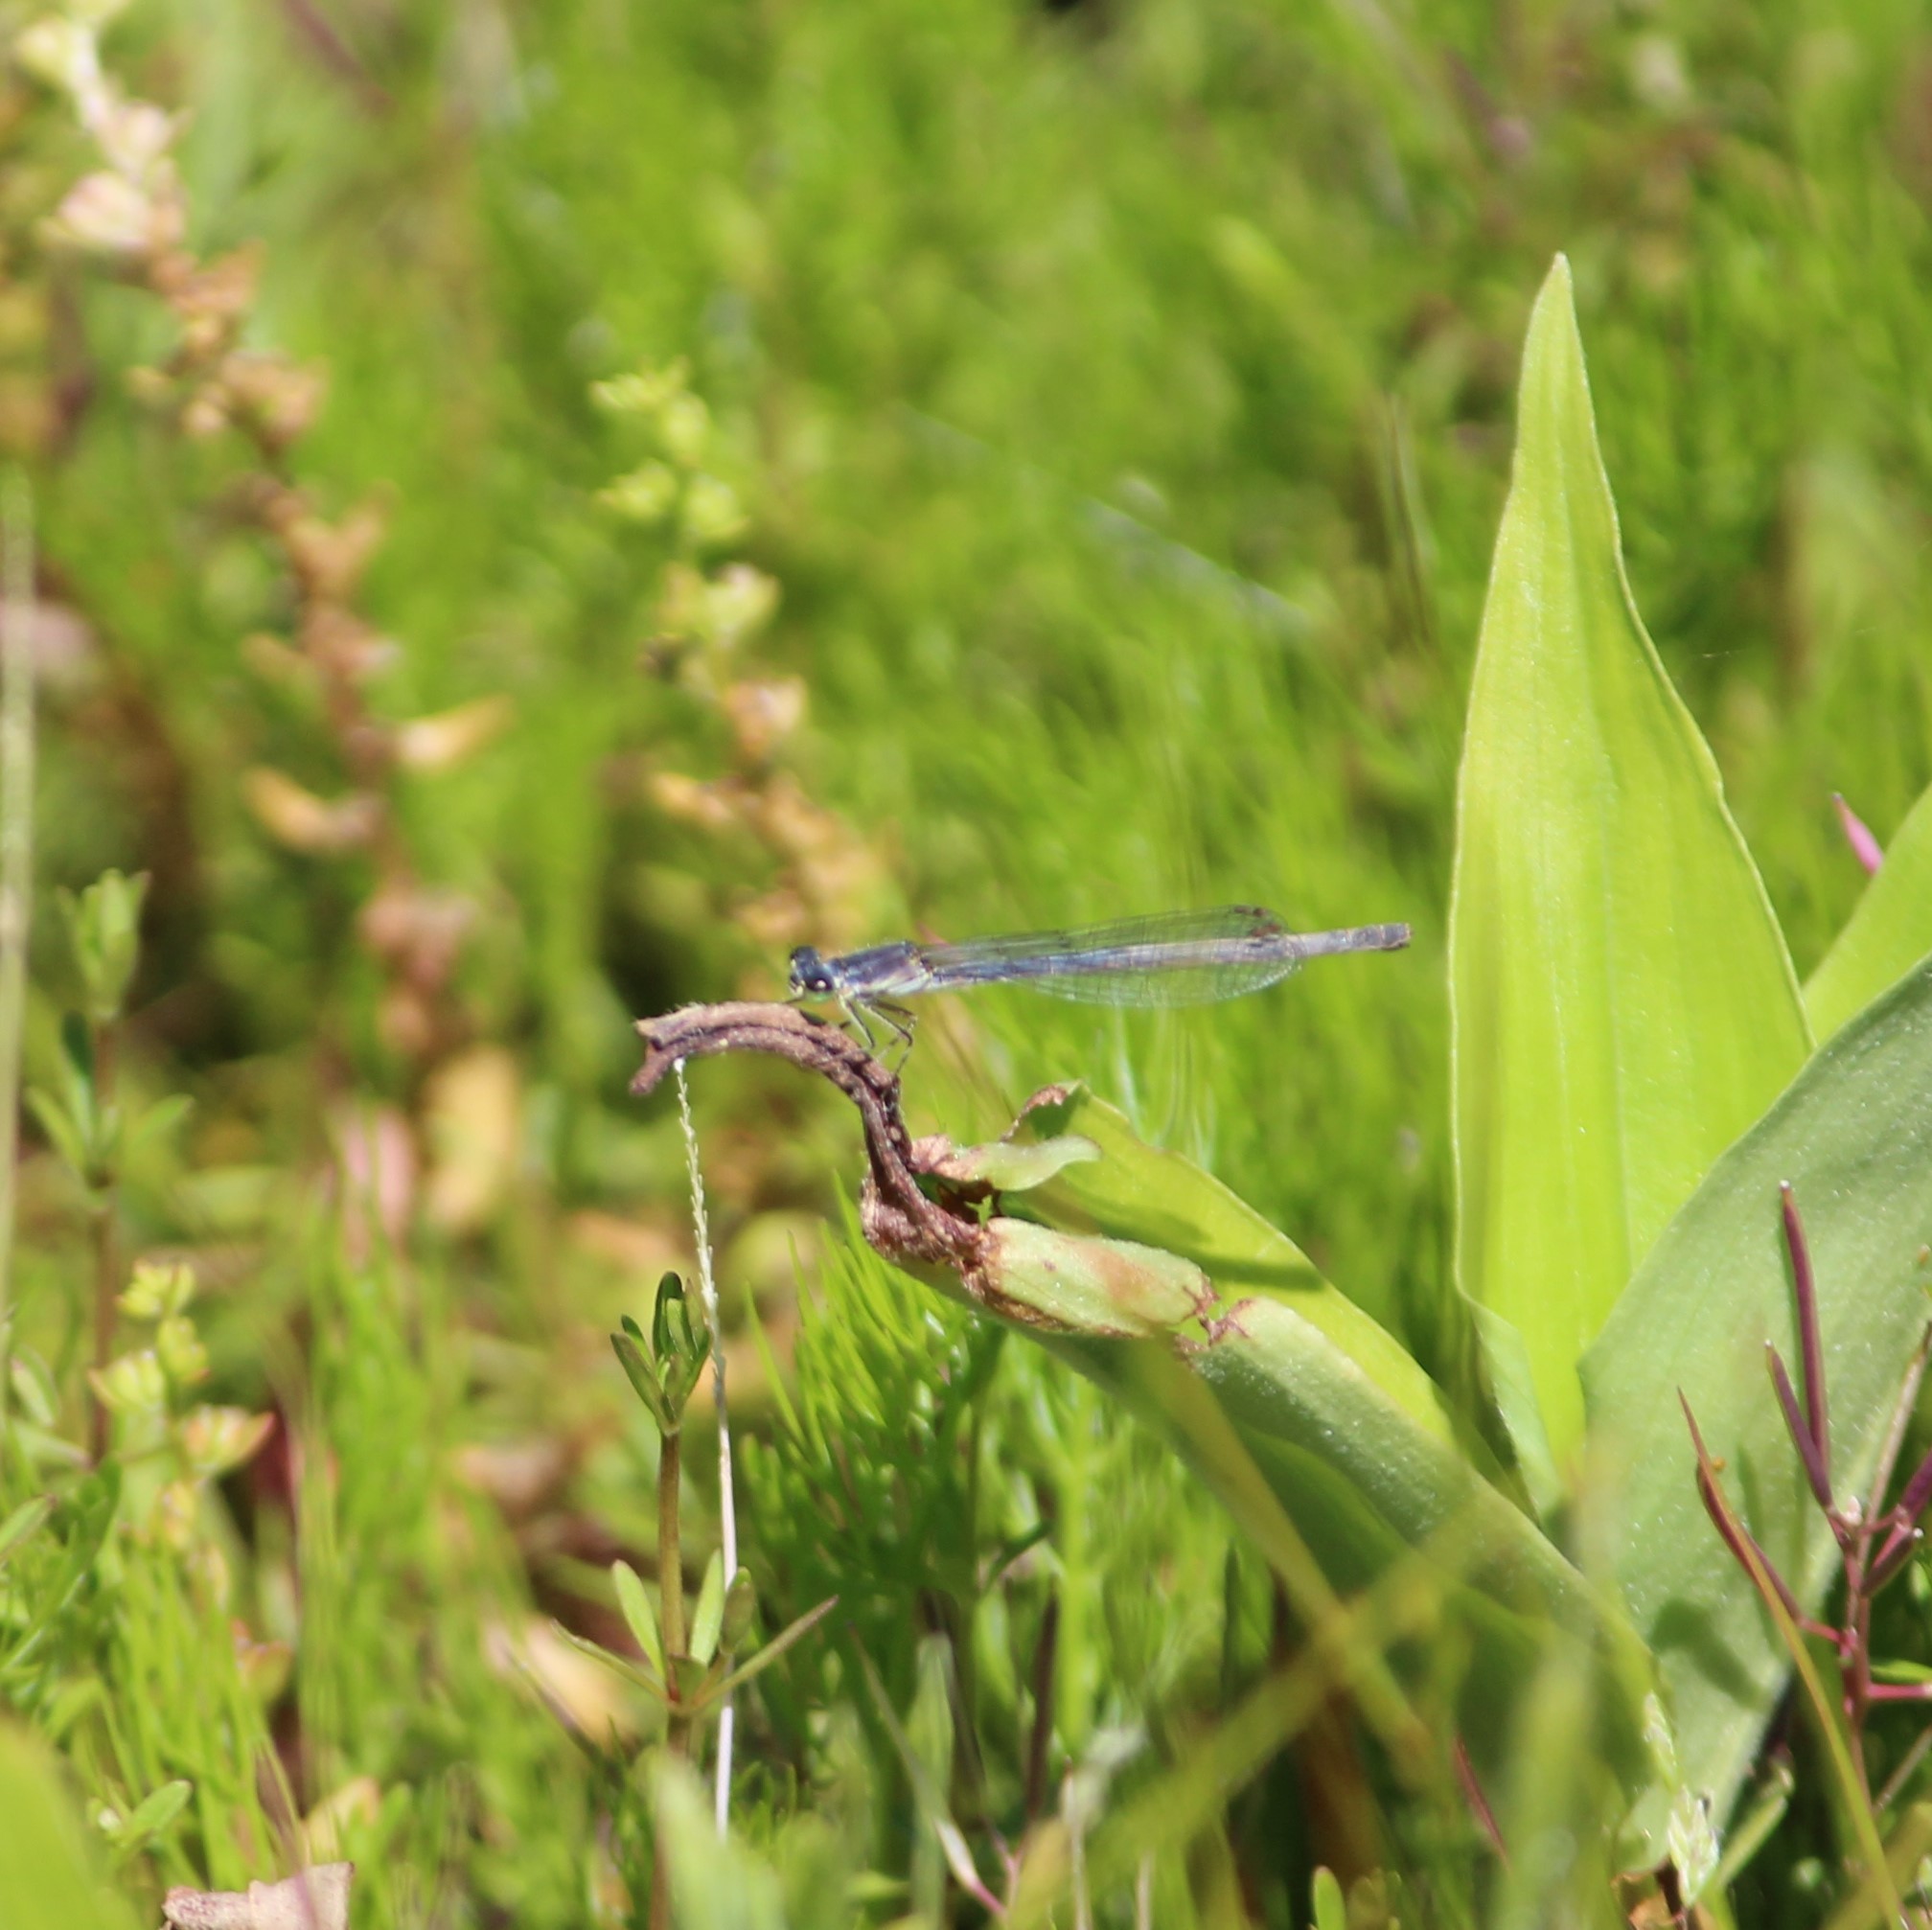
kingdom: Animalia
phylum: Arthropoda
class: Insecta
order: Odonata
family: Coenagrionidae
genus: Ischnura
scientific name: Ischnura posita
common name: Fragile forktail
